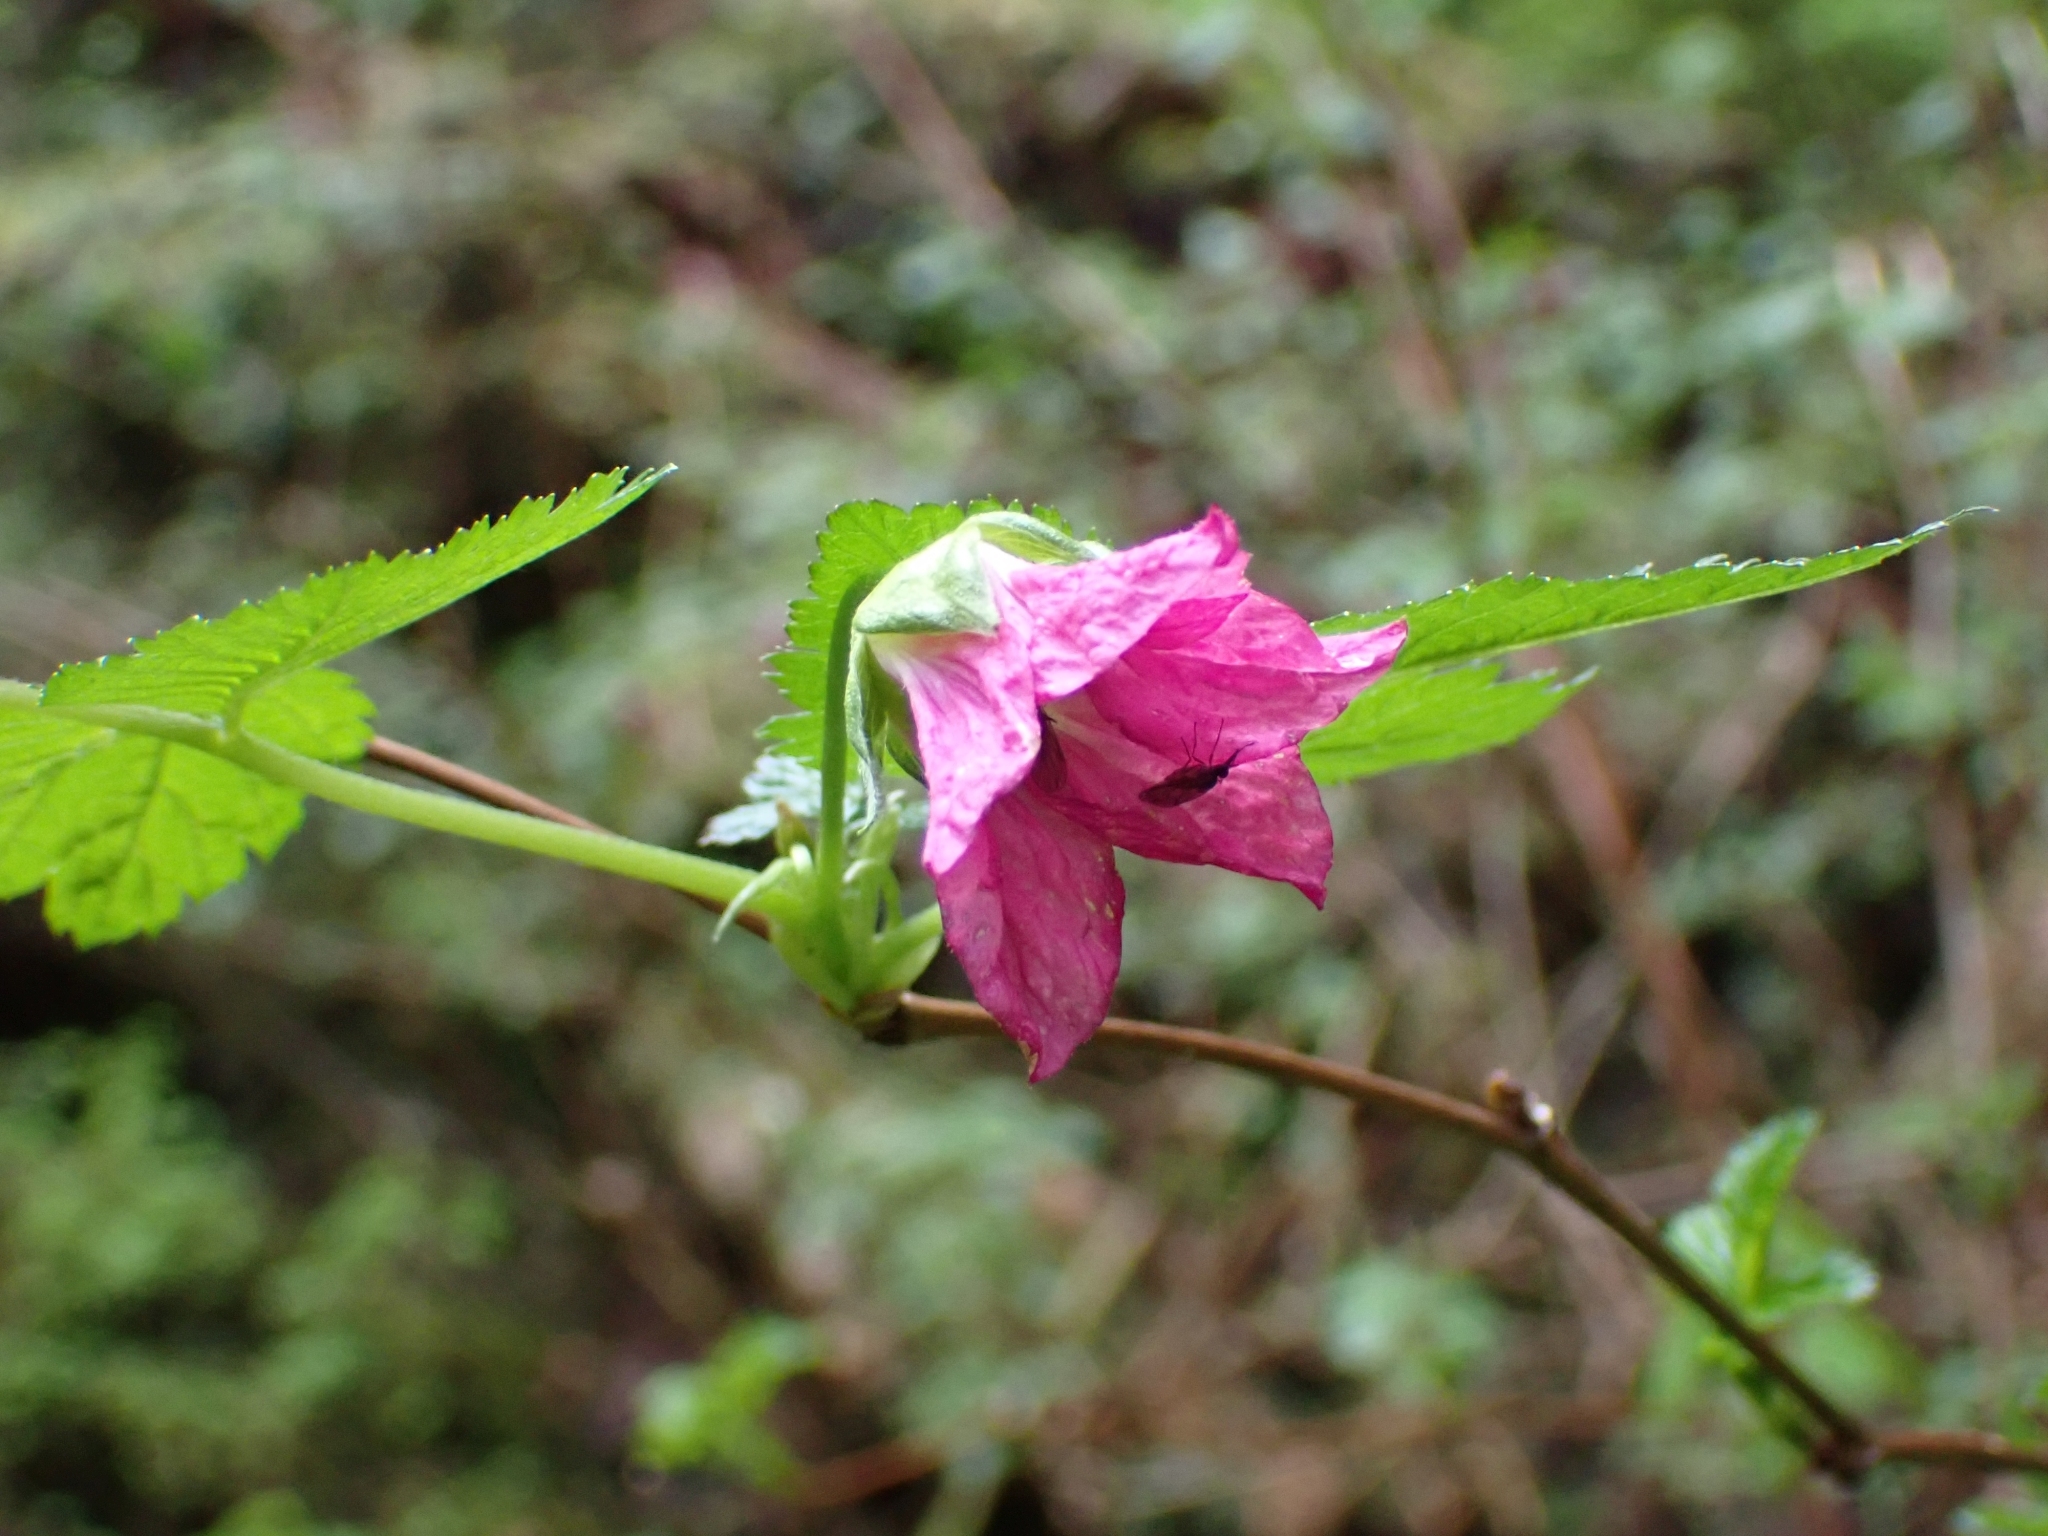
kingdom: Plantae
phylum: Tracheophyta
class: Magnoliopsida
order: Rosales
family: Rosaceae
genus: Rubus
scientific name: Rubus spectabilis
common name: Salmonberry
